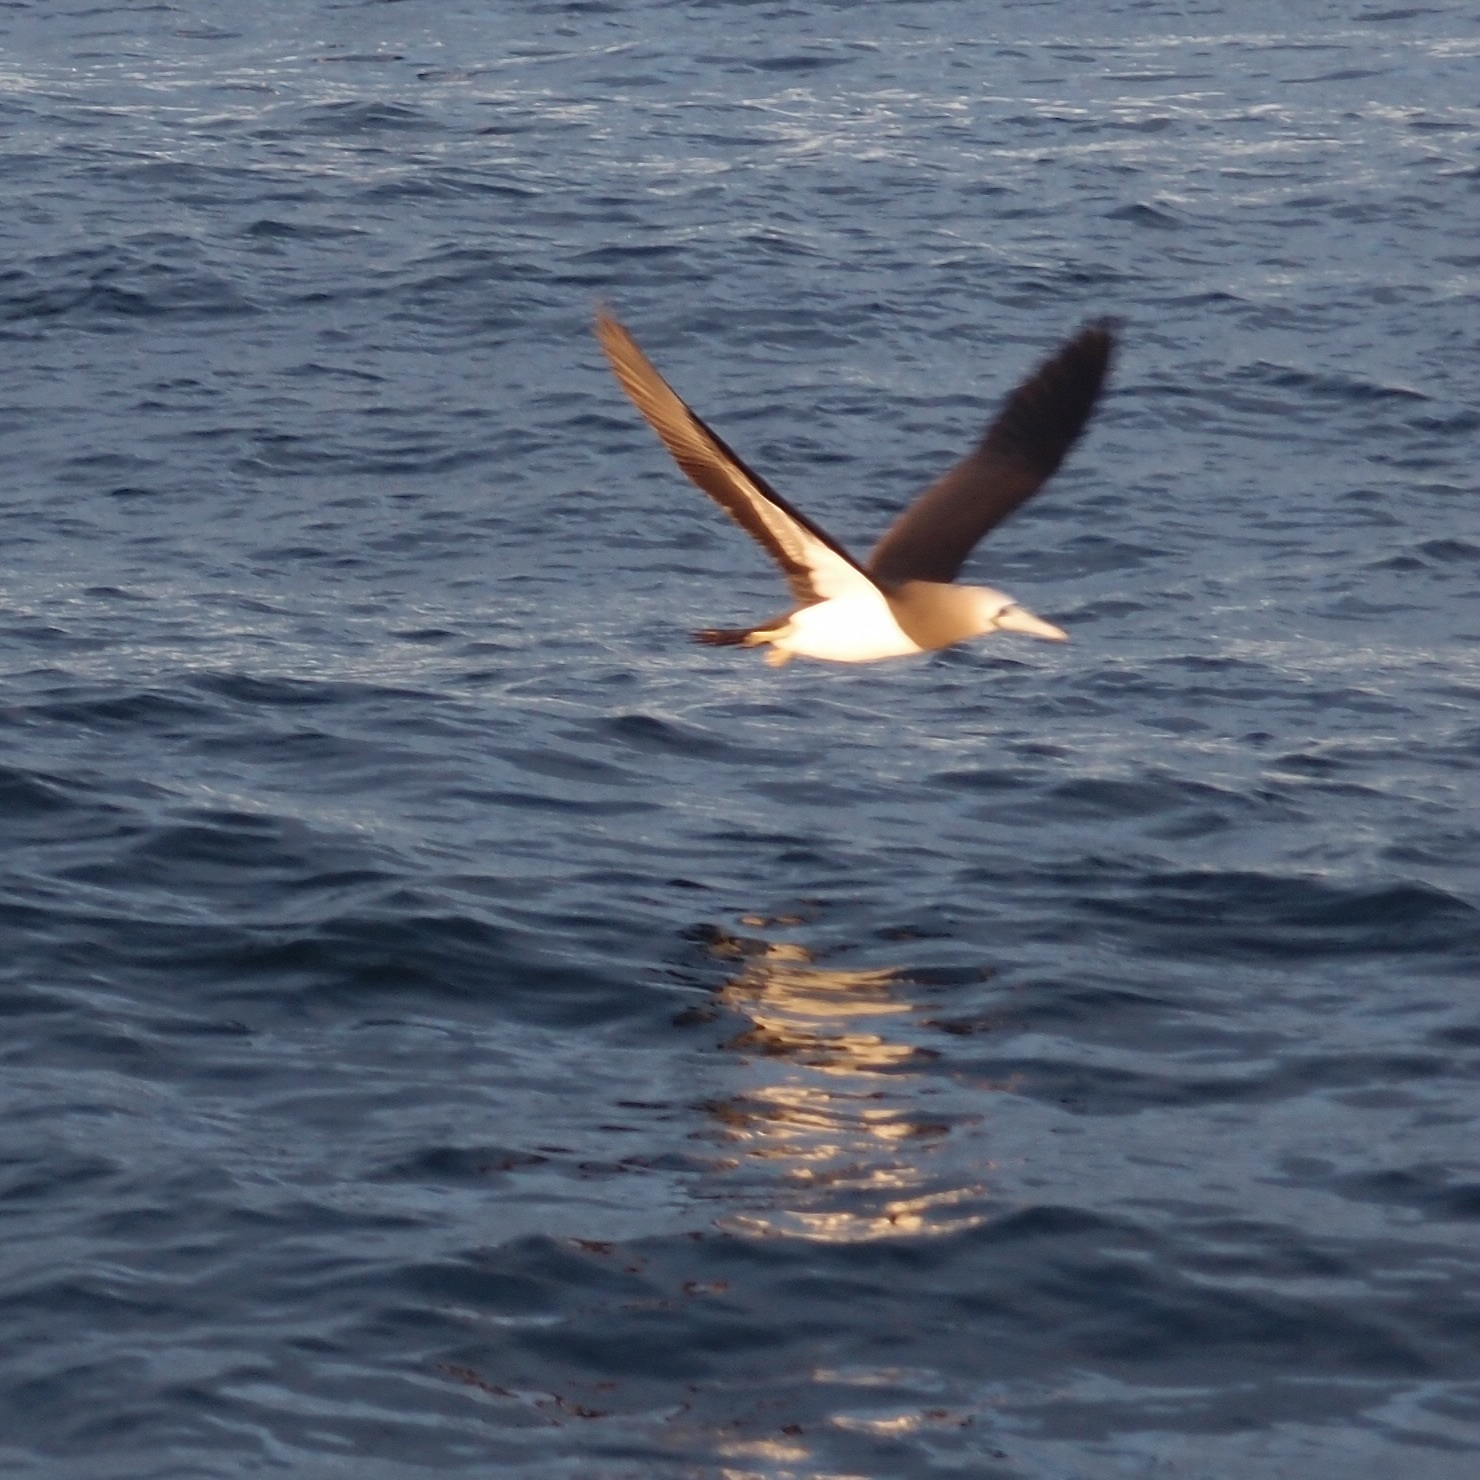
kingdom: Animalia
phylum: Chordata
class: Aves
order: Suliformes
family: Sulidae
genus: Sula
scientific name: Sula leucogaster
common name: Brown booby
